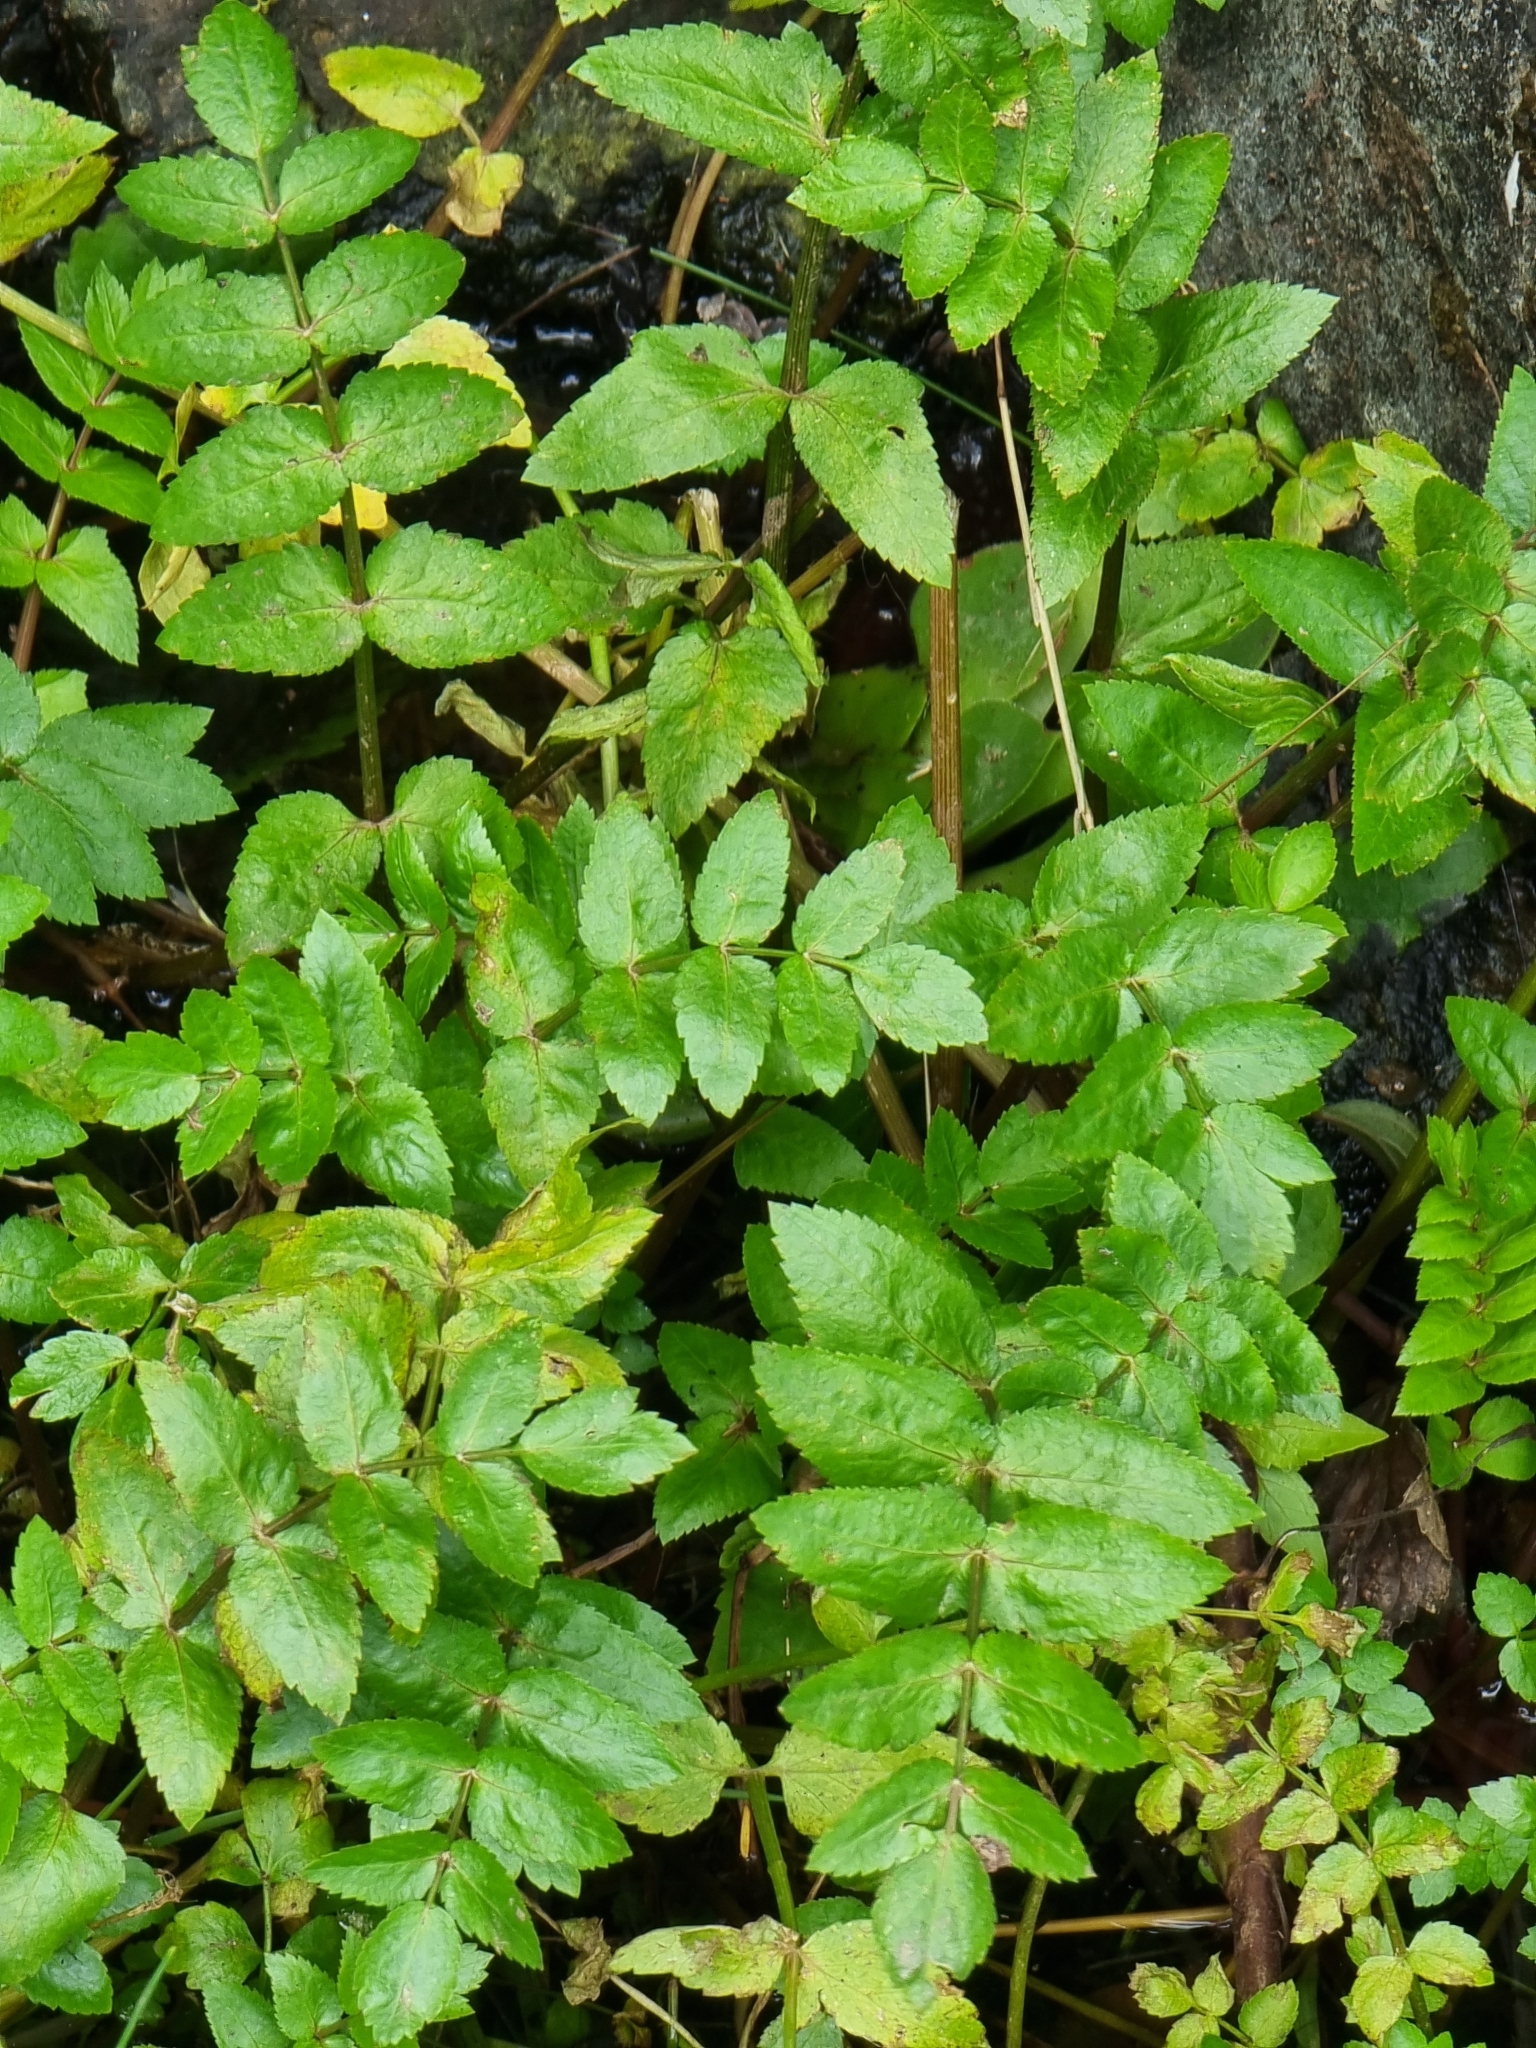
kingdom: Plantae
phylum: Tracheophyta
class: Magnoliopsida
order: Apiales
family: Apiaceae
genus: Helosciadium
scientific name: Helosciadium nodiflorum
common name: Fool's-watercress
